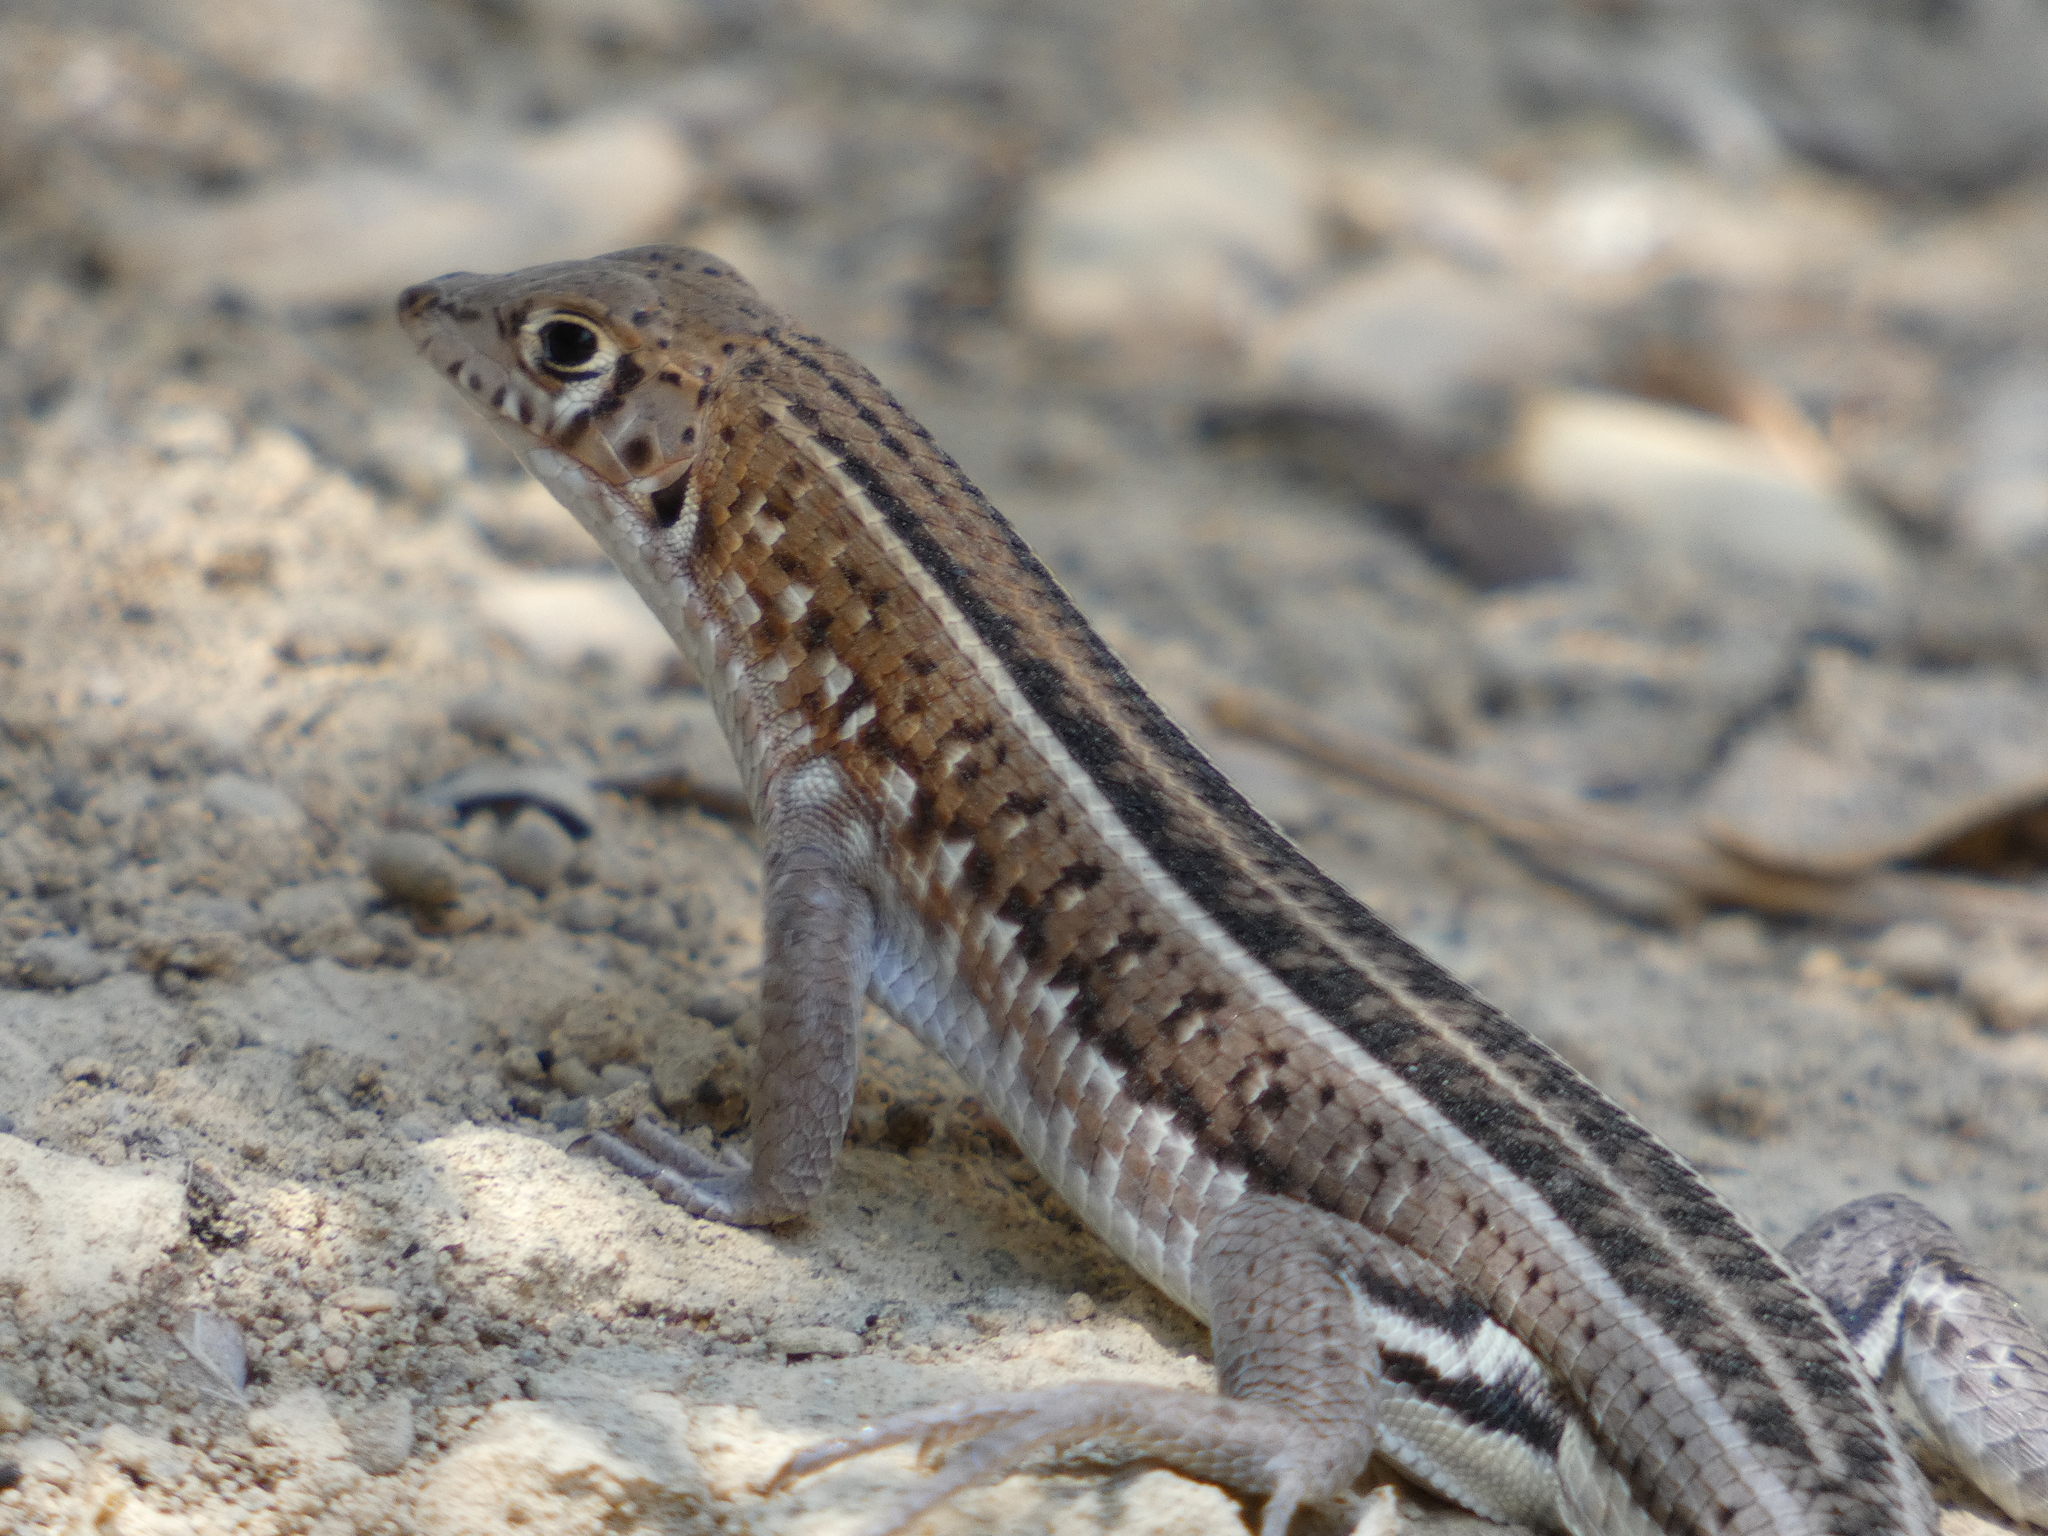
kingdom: Animalia
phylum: Chordata
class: Squamata
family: Gerrhosauridae
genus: Tracheloptychus
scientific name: Tracheloptychus madagascariensis
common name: Madagascar girdled lizard
